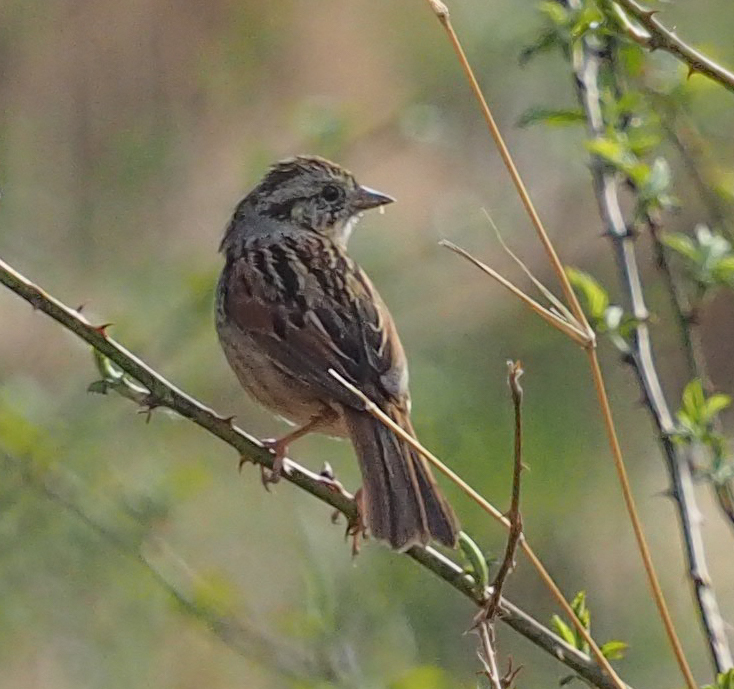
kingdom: Animalia
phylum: Chordata
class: Aves
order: Passeriformes
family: Passerellidae
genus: Melospiza
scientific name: Melospiza georgiana
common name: Swamp sparrow
